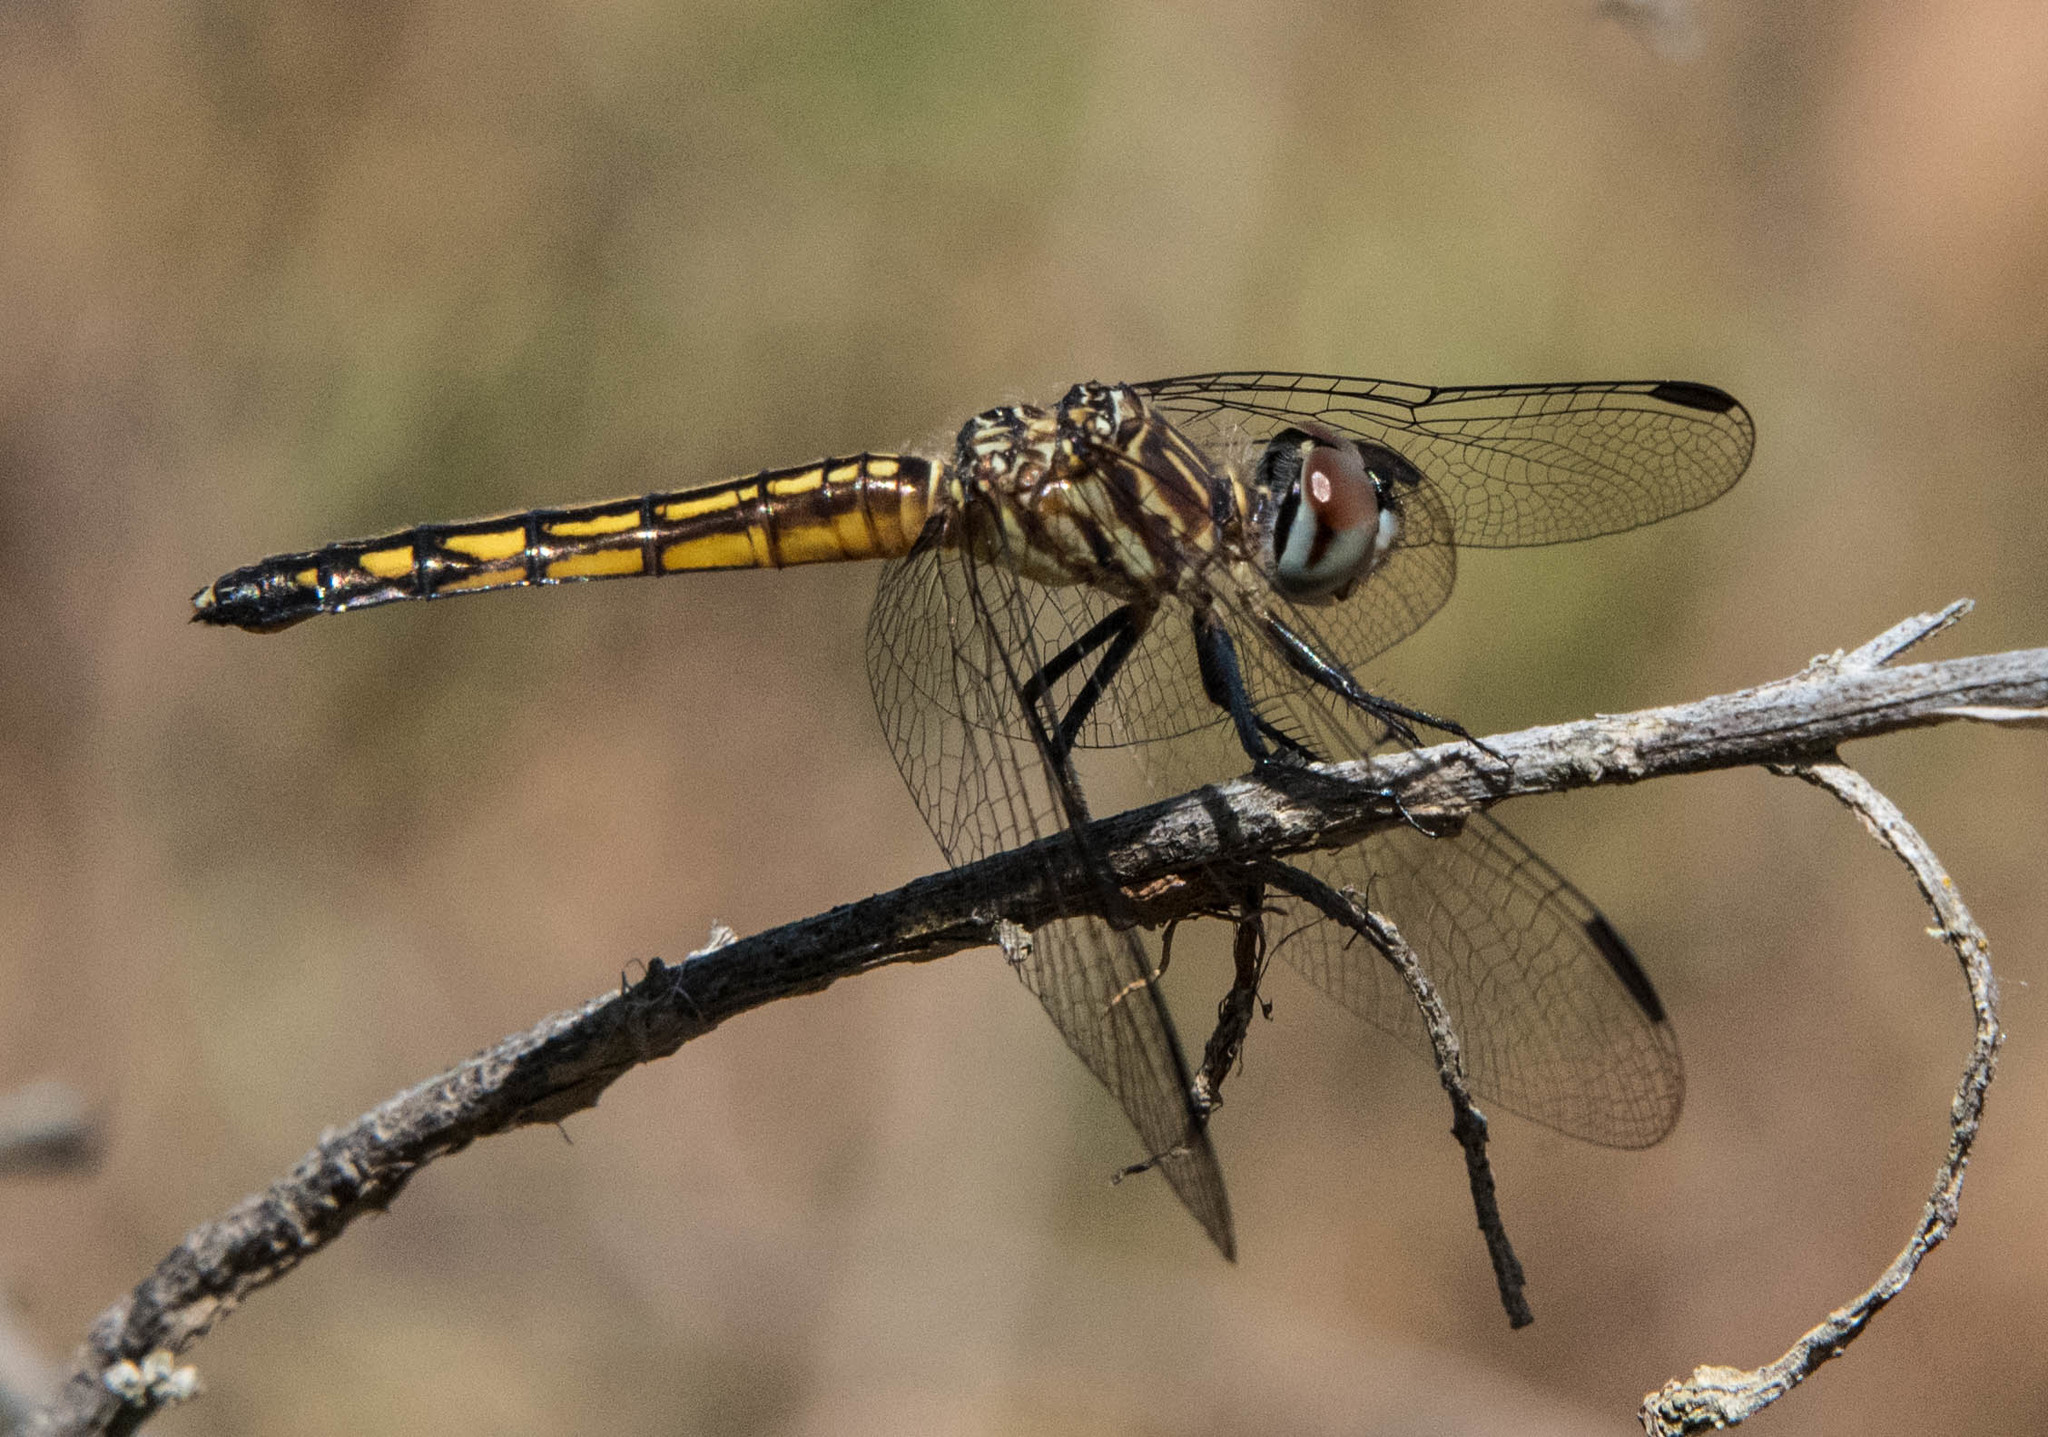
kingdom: Animalia
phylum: Arthropoda
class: Insecta
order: Odonata
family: Libellulidae
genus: Pachydiplax
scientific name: Pachydiplax longipennis
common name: Blue dasher
